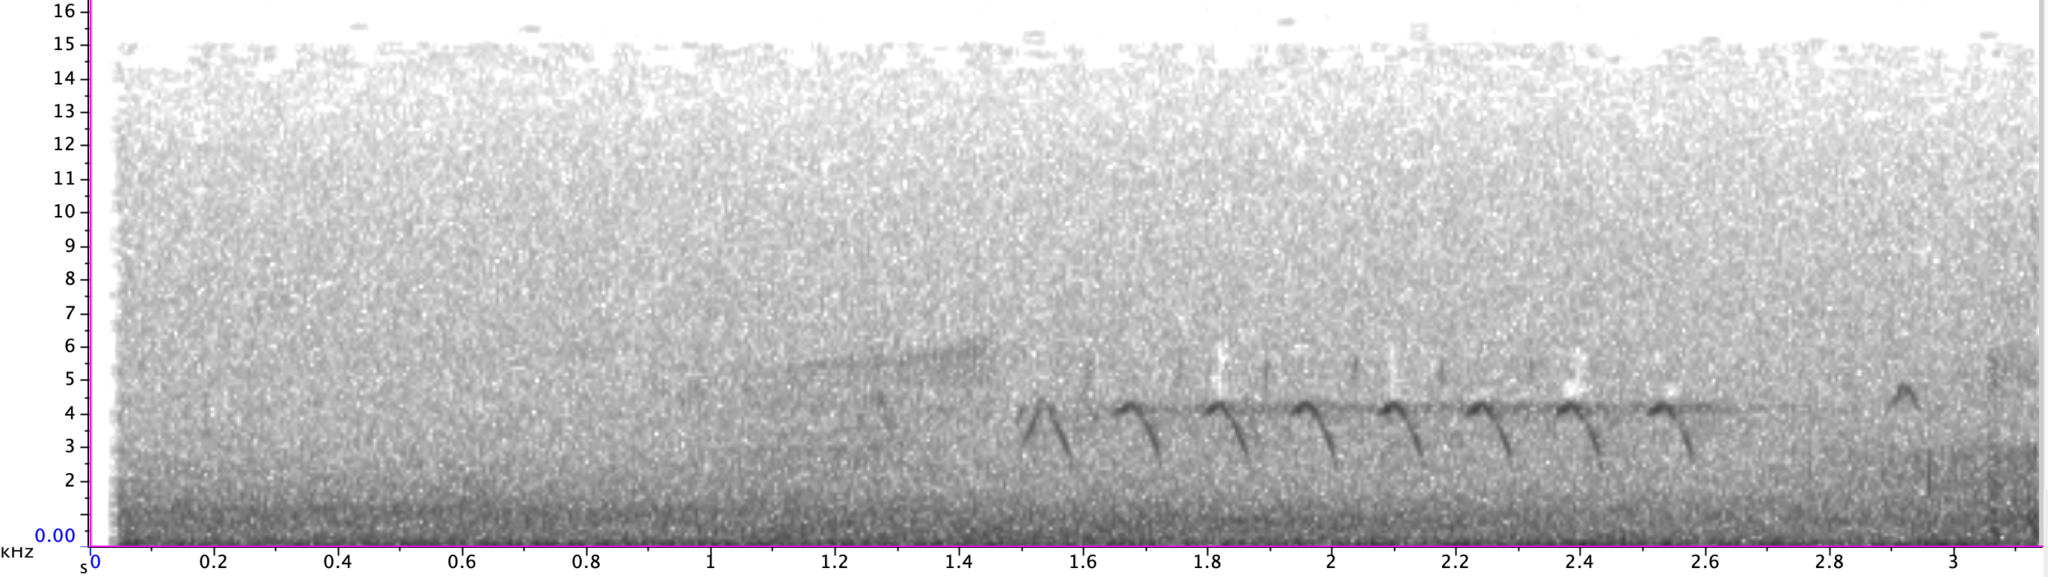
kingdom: Animalia
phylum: Chordata
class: Aves
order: Passeriformes
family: Troglodytidae
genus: Thryomanes
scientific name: Thryomanes bewickii
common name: Bewick's wren
